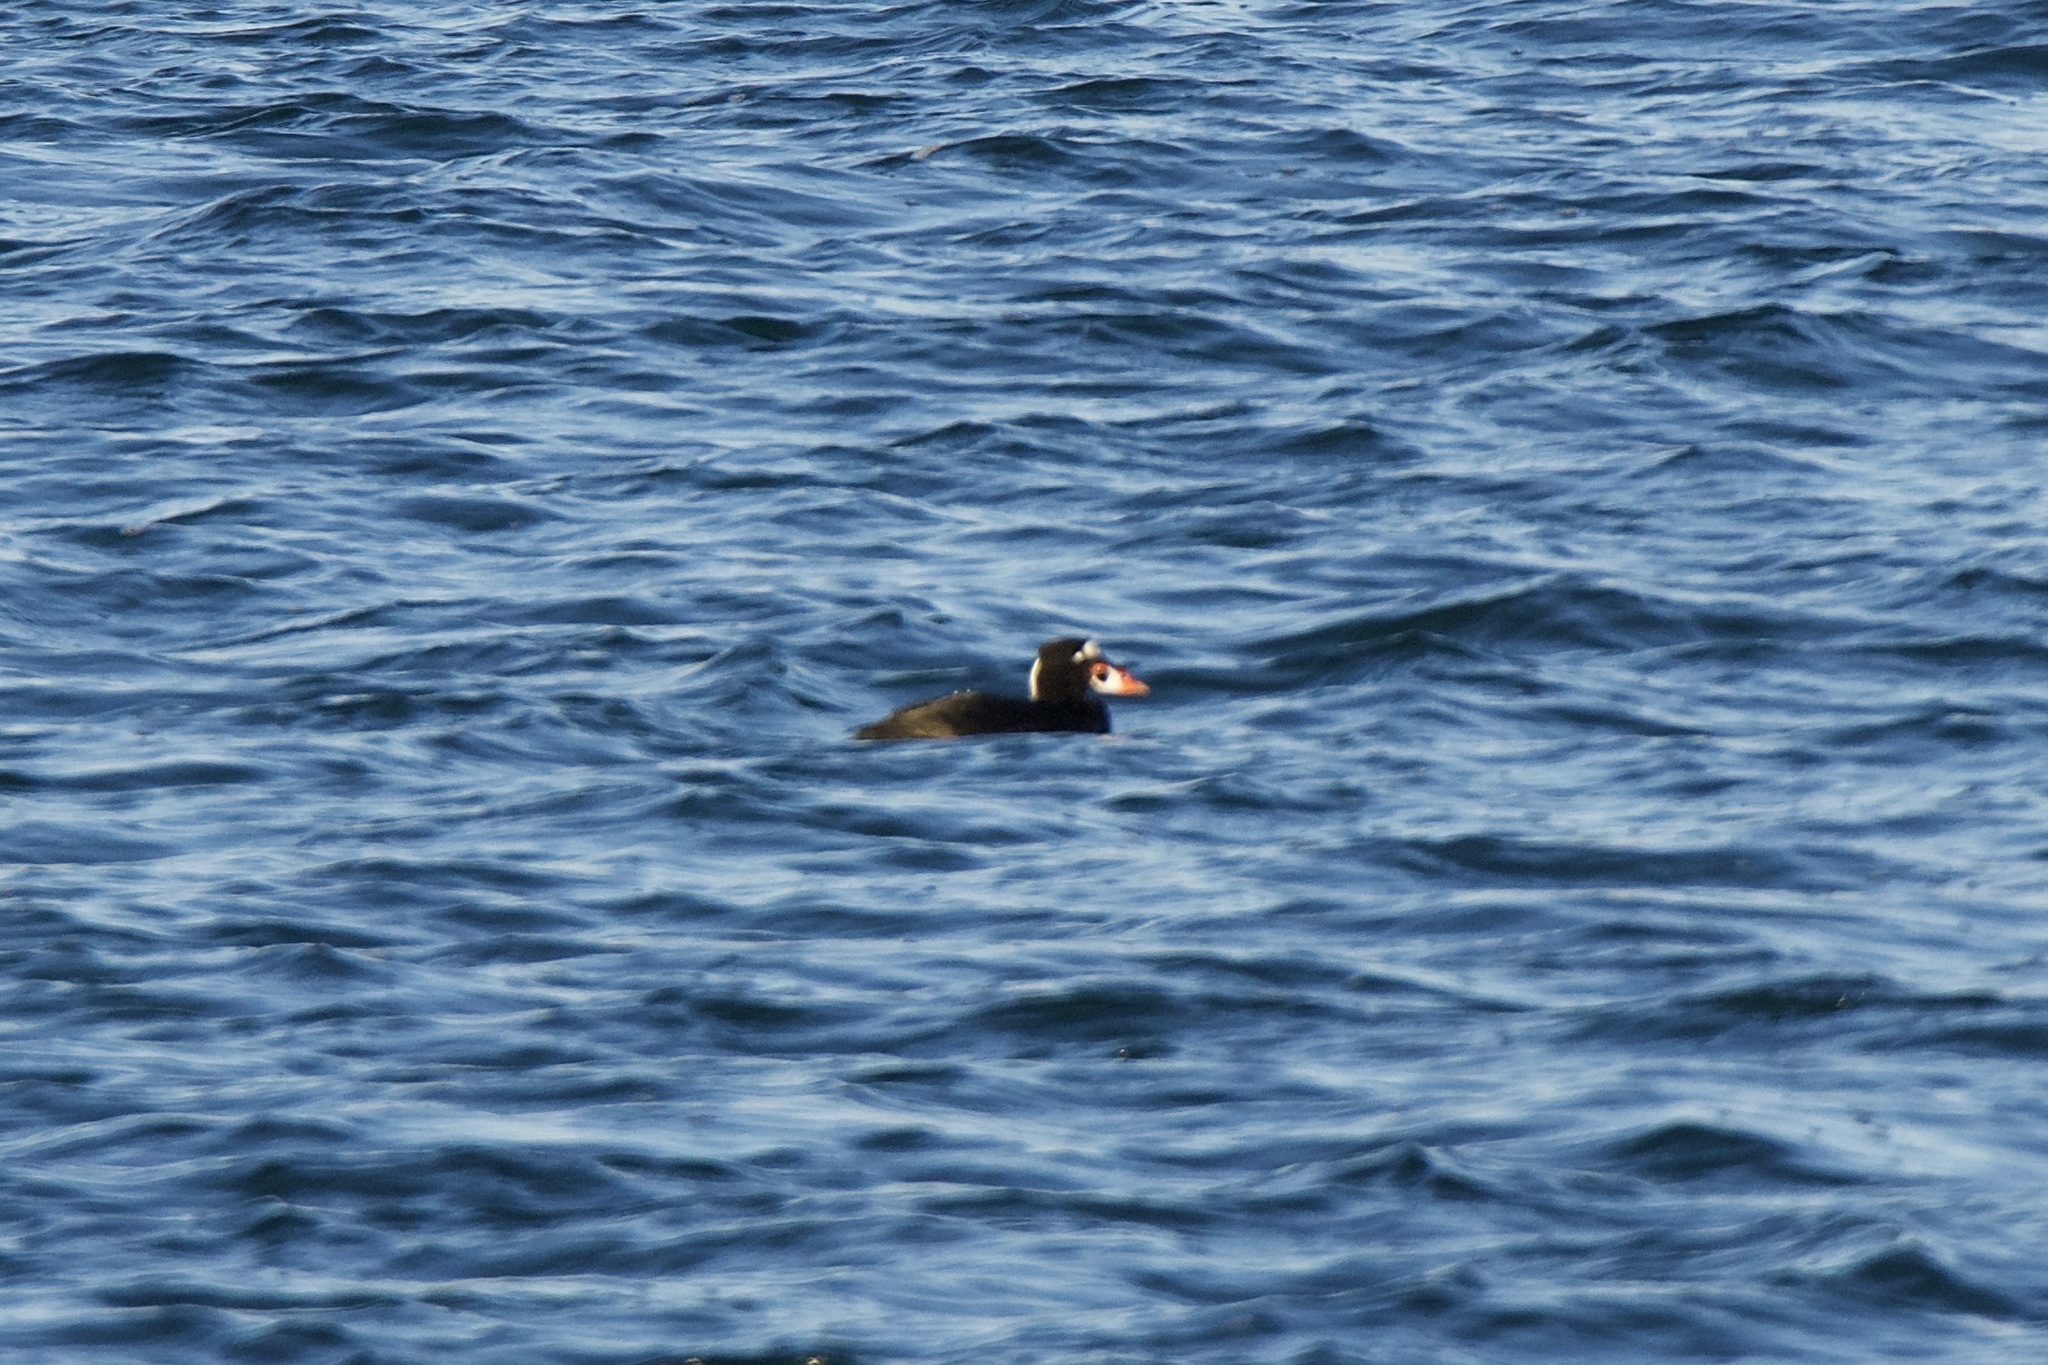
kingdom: Animalia
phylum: Chordata
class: Aves
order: Anseriformes
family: Anatidae
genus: Melanitta
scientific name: Melanitta perspicillata
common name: Surf scoter
